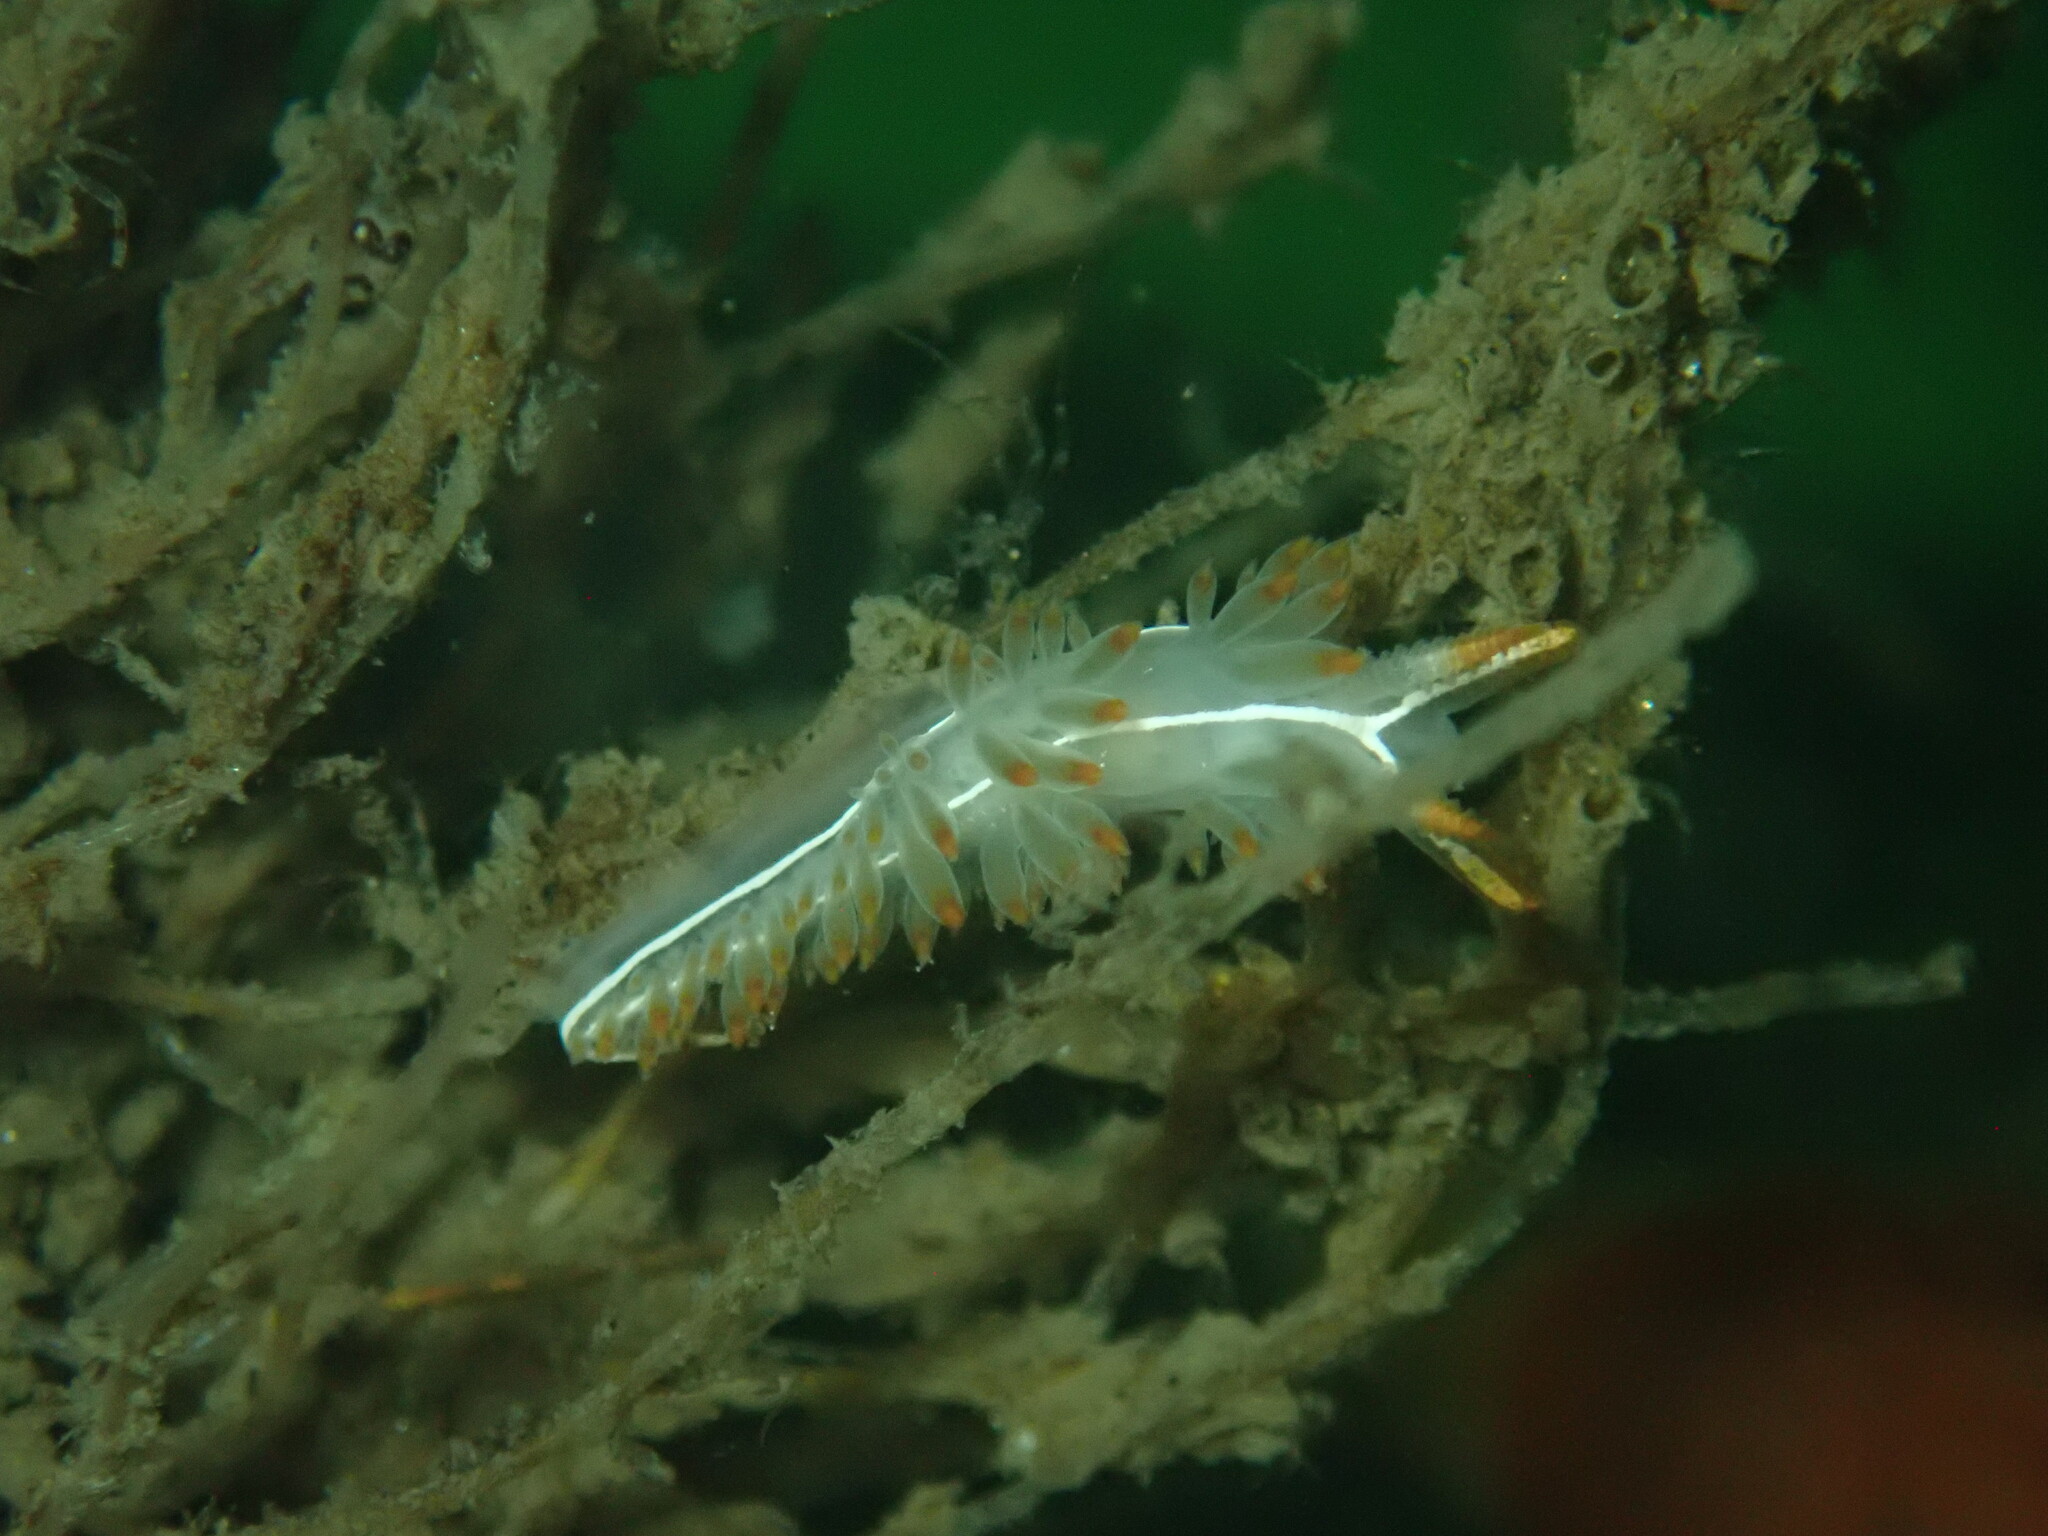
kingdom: Animalia
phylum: Mollusca
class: Gastropoda
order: Nudibranchia
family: Coryphellidae
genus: Coryphella
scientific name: Coryphella trilineata
